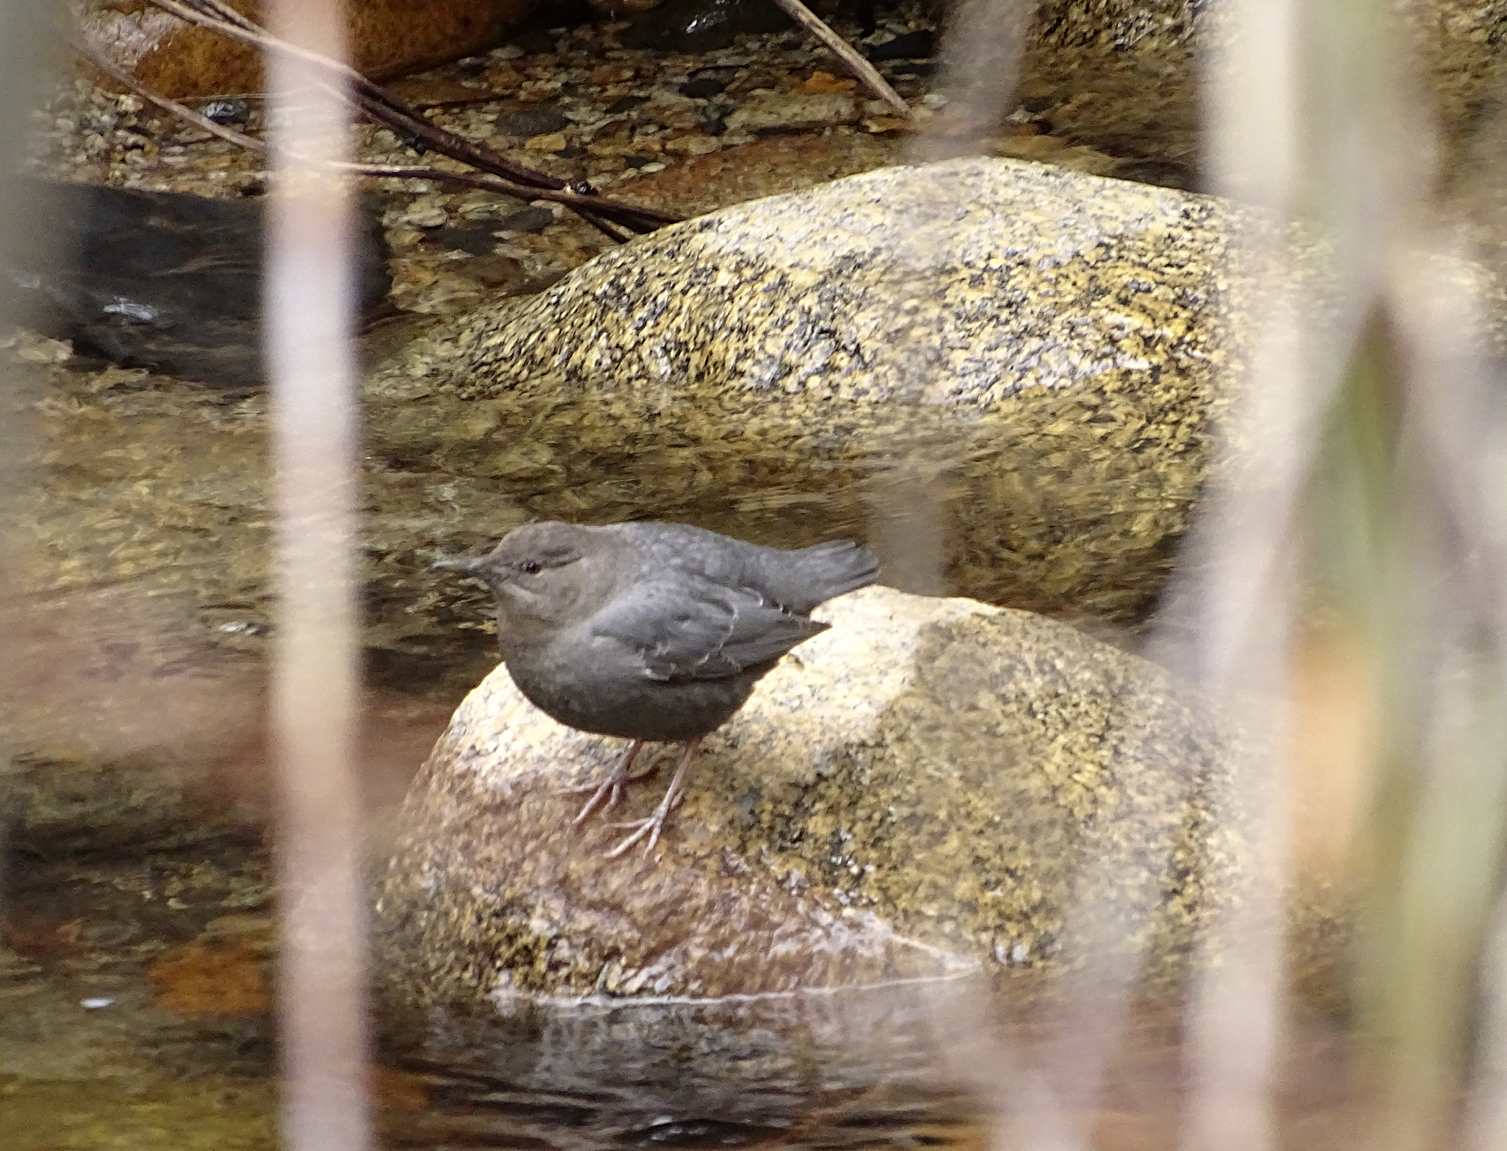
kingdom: Animalia
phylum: Chordata
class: Aves
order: Passeriformes
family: Cinclidae
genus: Cinclus
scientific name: Cinclus mexicanus
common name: American dipper
